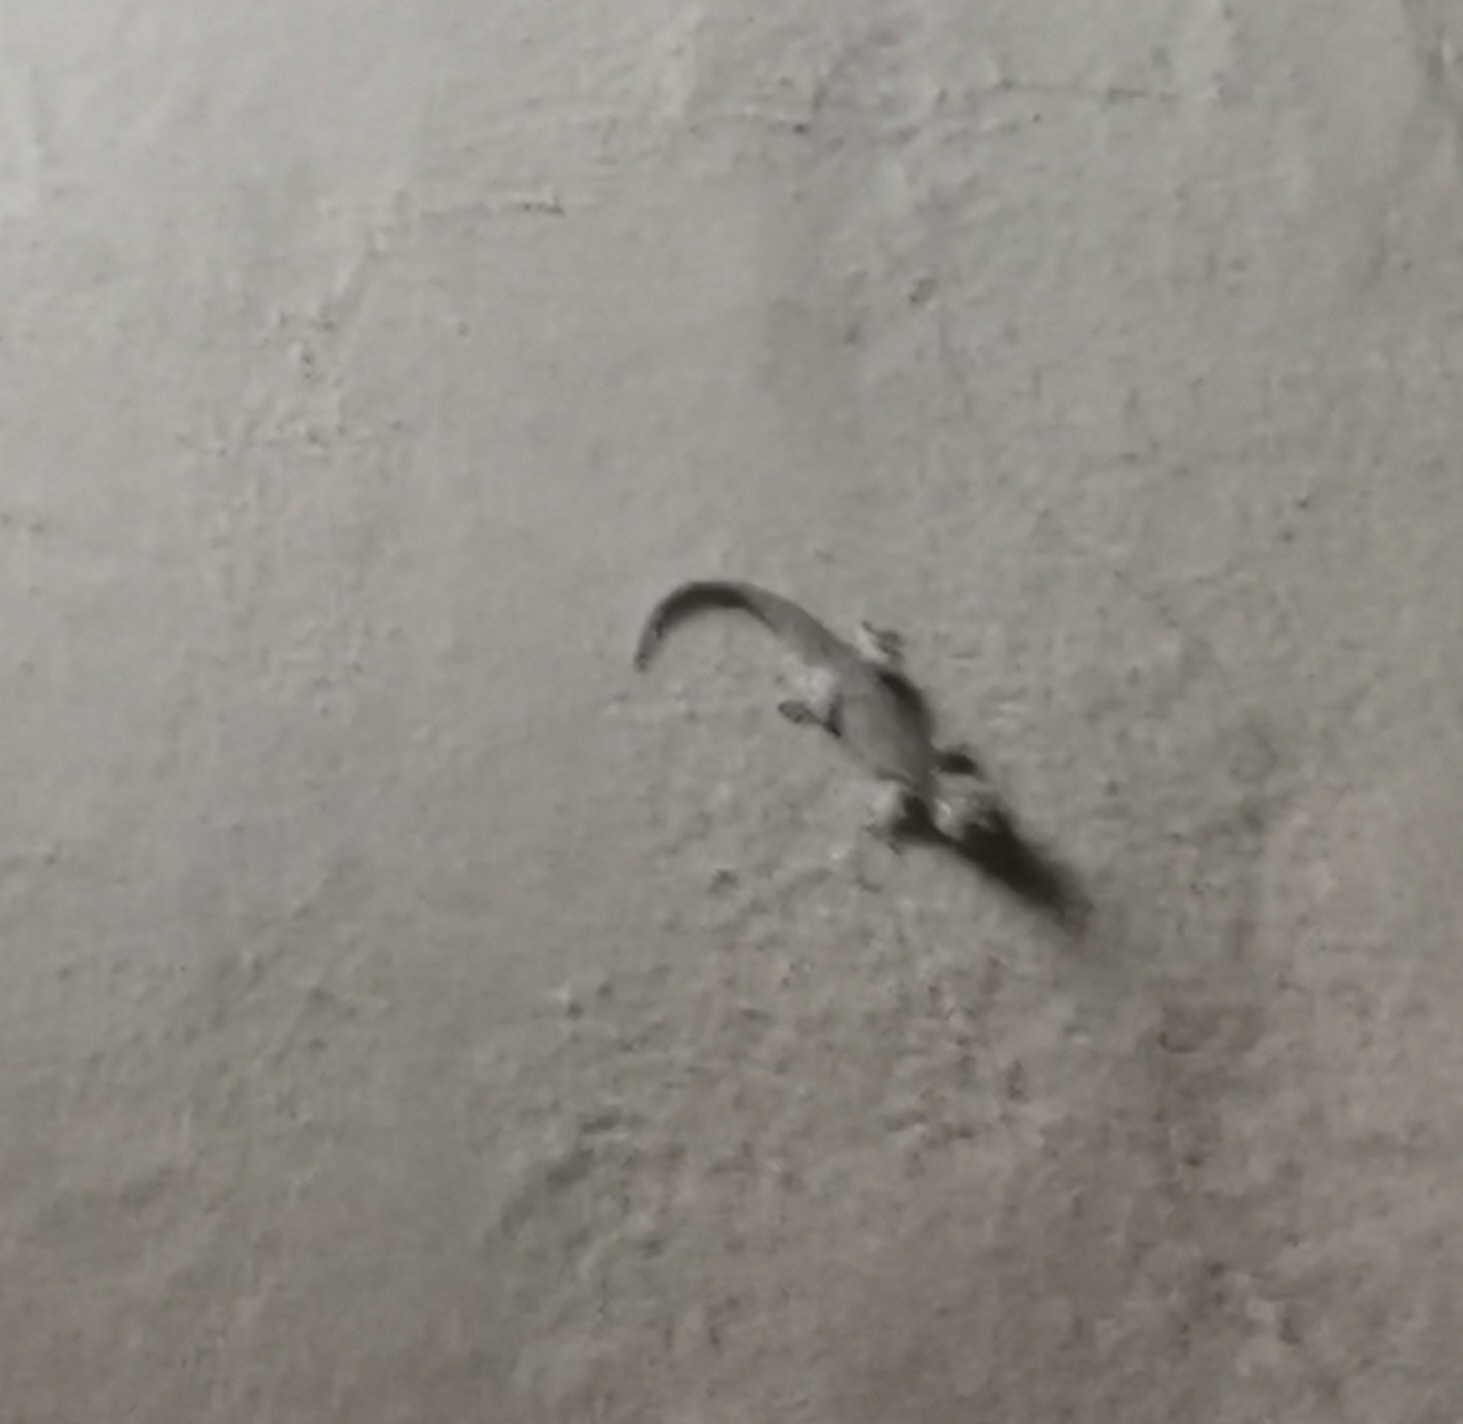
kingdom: Animalia
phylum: Chordata
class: Squamata
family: Phyllodactylidae
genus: Tarentola
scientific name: Tarentola mauritanica
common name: Moorish gecko
